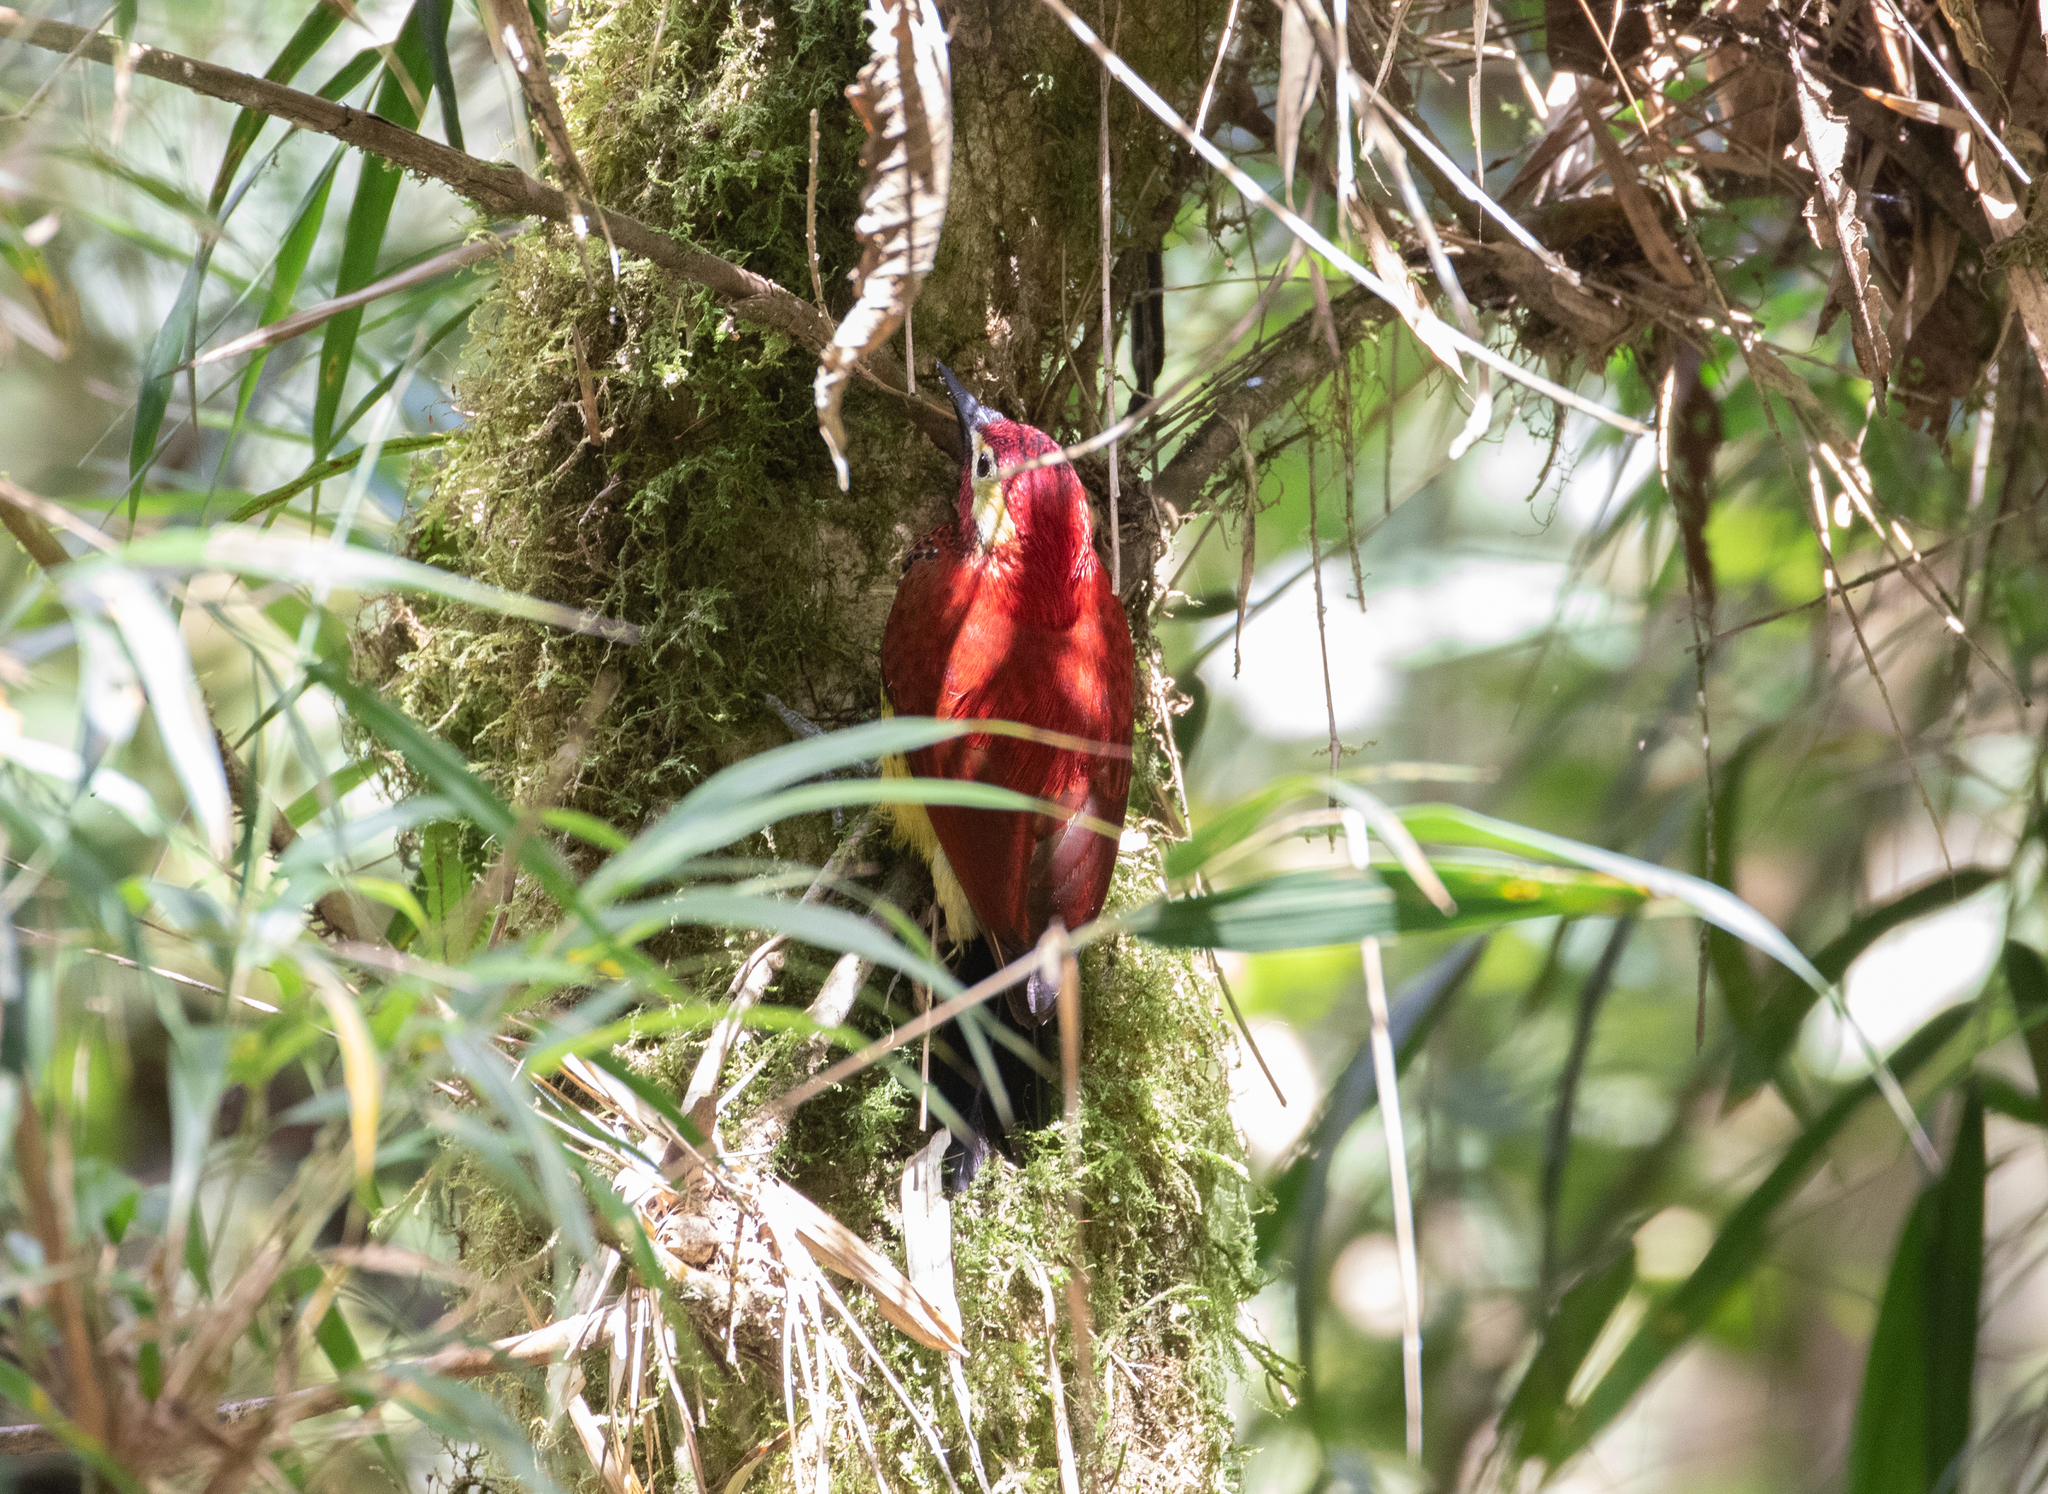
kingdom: Animalia
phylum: Chordata
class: Aves
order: Piciformes
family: Picidae
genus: Colaptes
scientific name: Colaptes rivolii
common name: Crimson-mantled woodpecker
